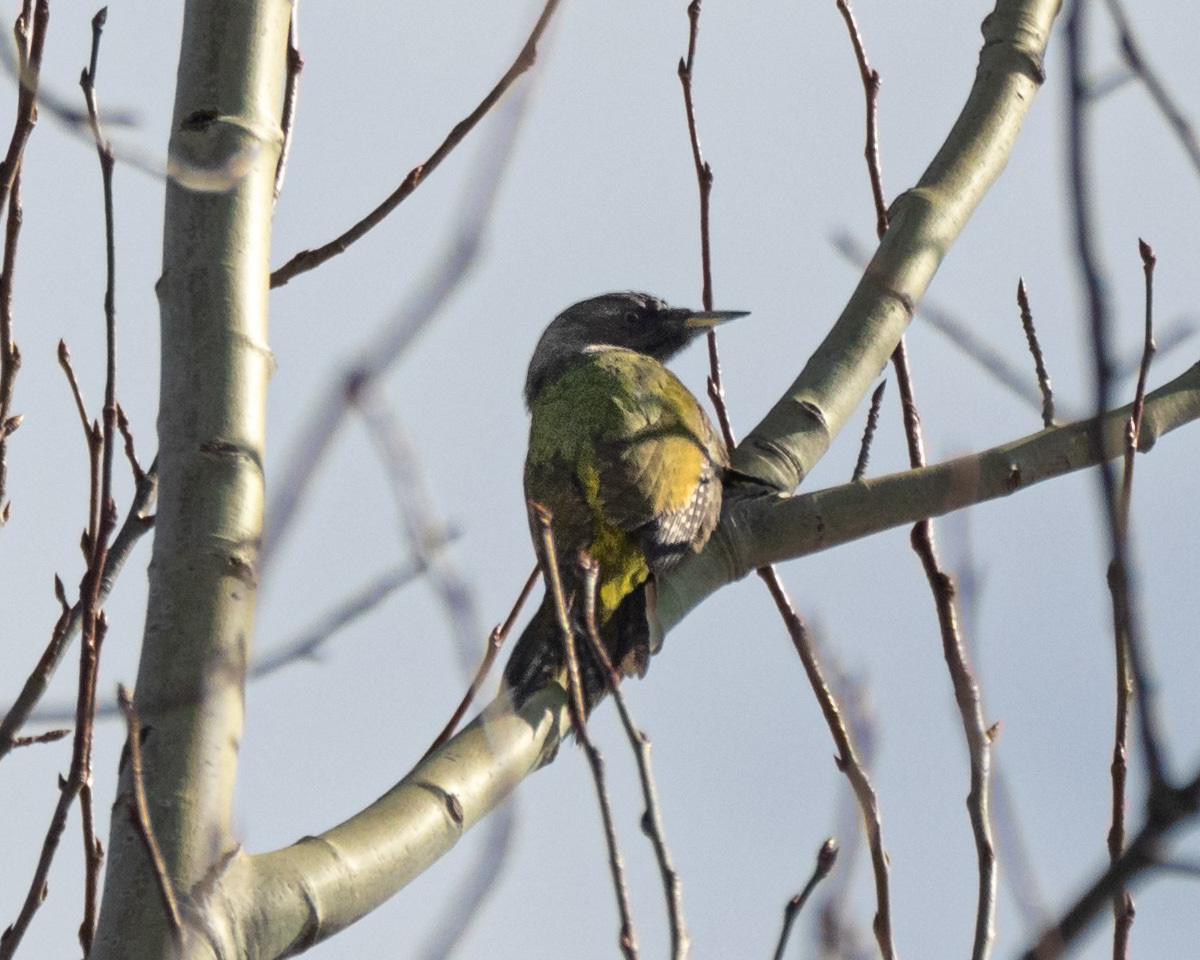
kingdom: Animalia
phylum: Chordata
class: Aves
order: Piciformes
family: Picidae
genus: Picus
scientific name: Picus canus
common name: Grey-headed woodpecker
